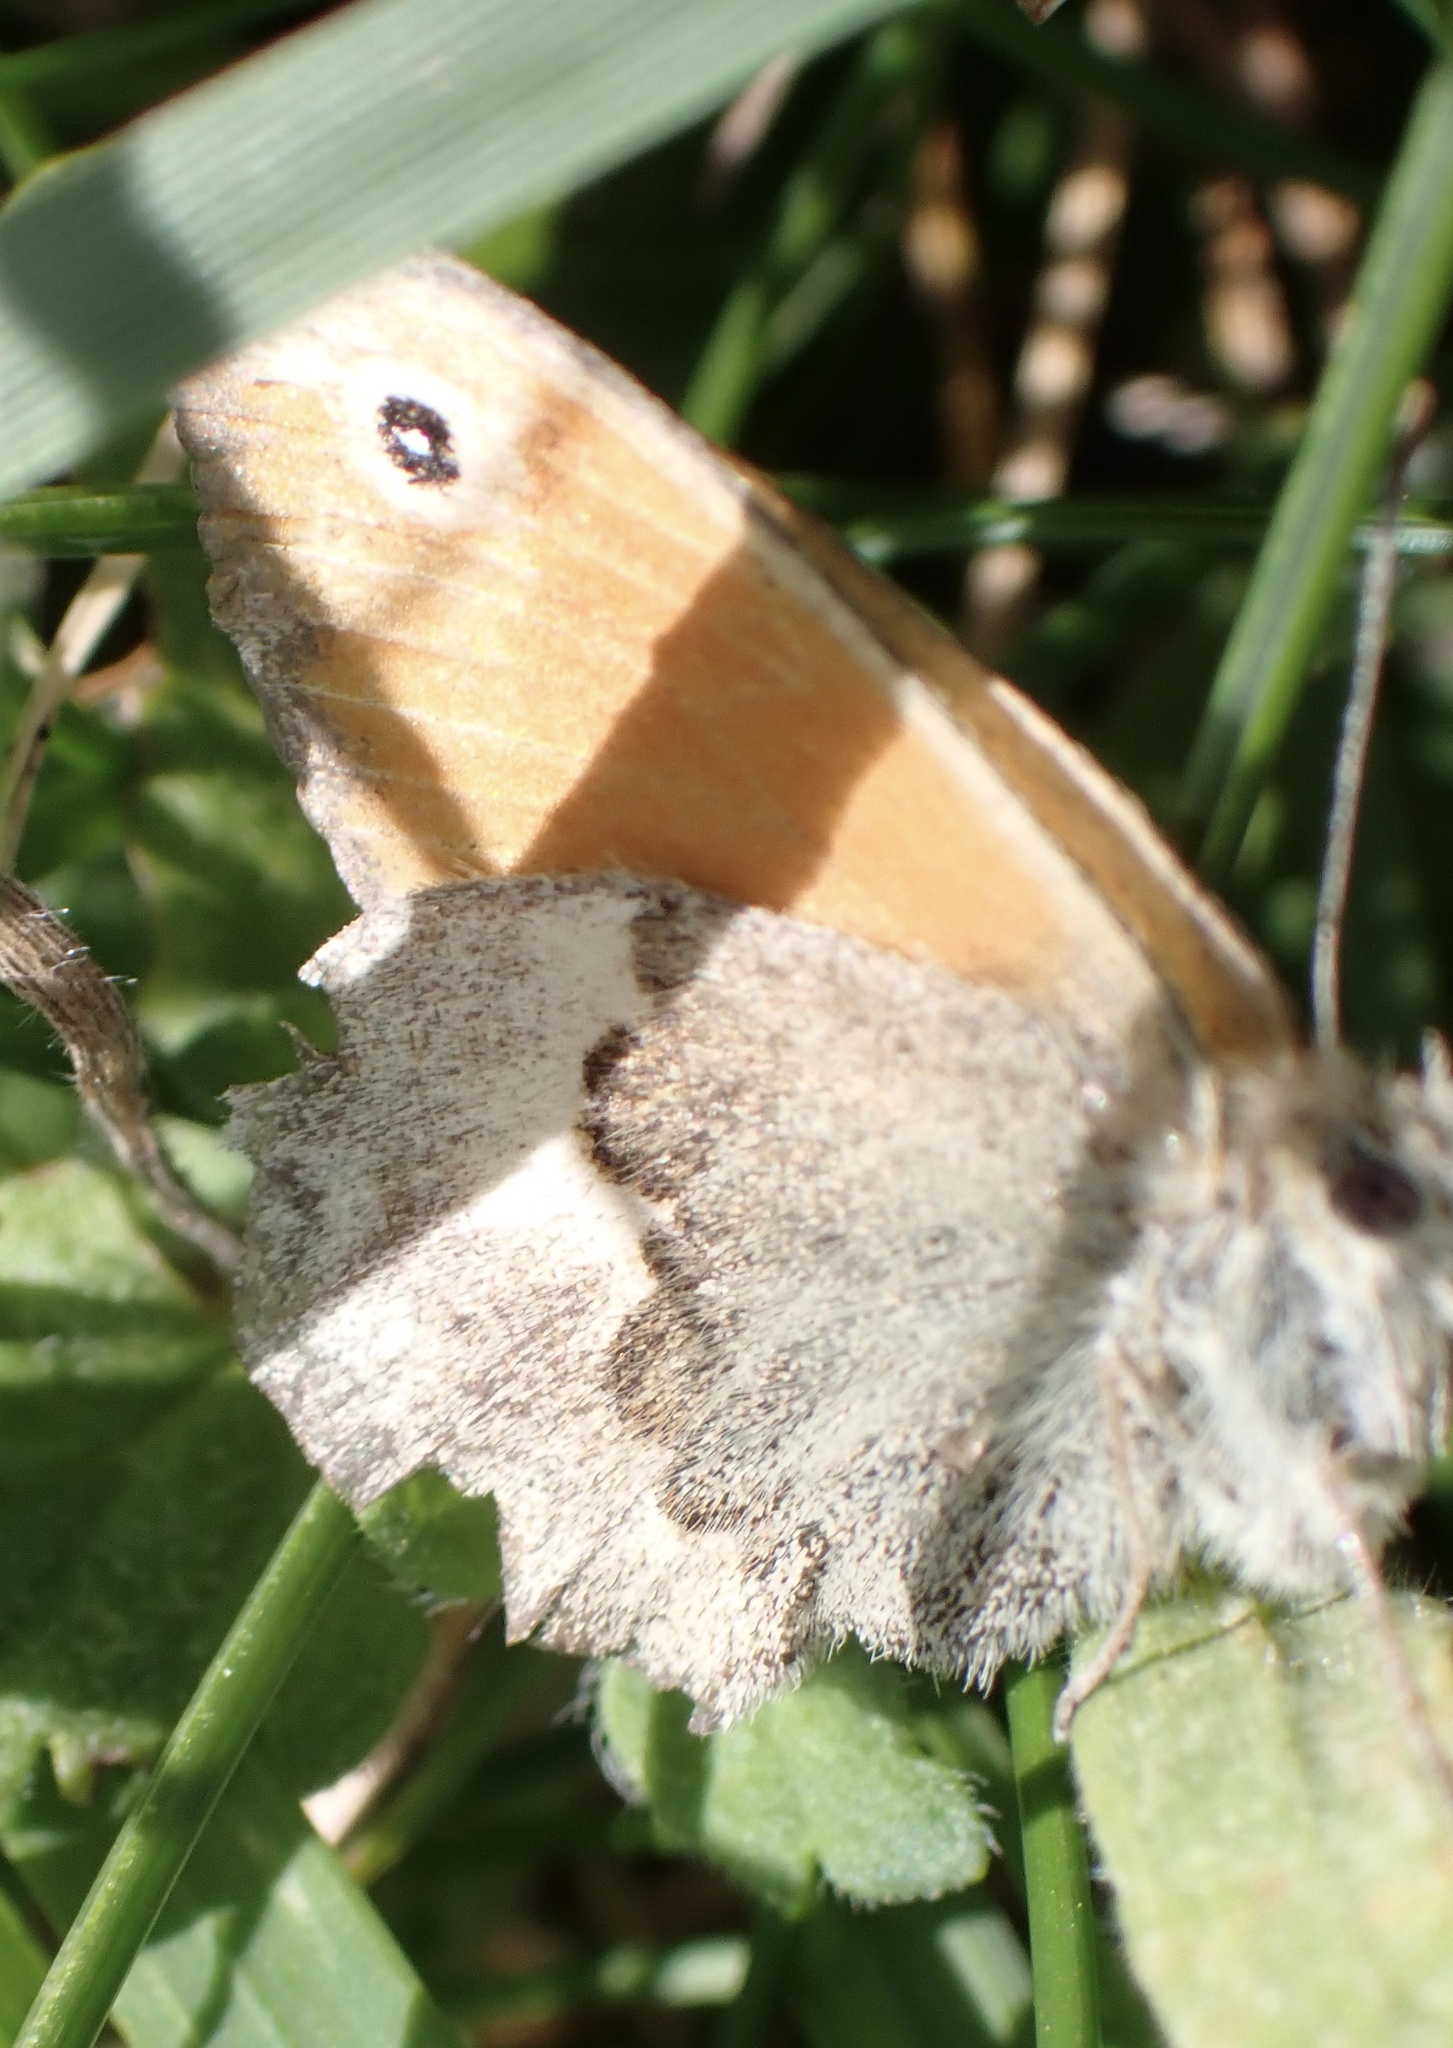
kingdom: Animalia
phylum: Arthropoda
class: Insecta
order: Lepidoptera
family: Nymphalidae
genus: Coenonympha
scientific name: Coenonympha pamphilus
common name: Small heath
